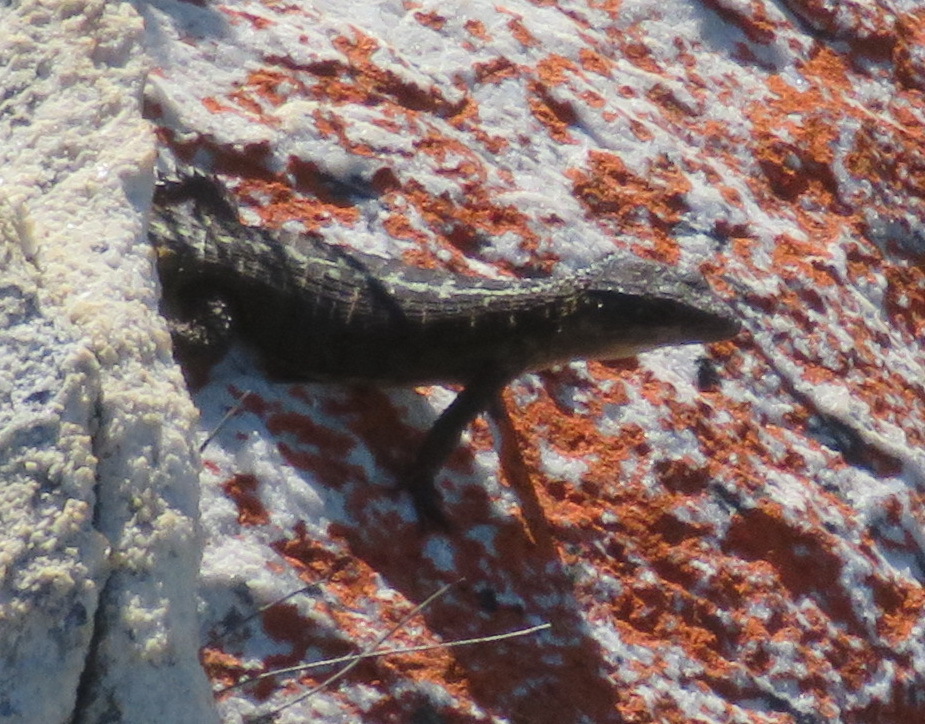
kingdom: Animalia
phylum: Chordata
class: Squamata
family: Cordylidae
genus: Cordylus
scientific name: Cordylus cordylus
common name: Cape girdled lizard
